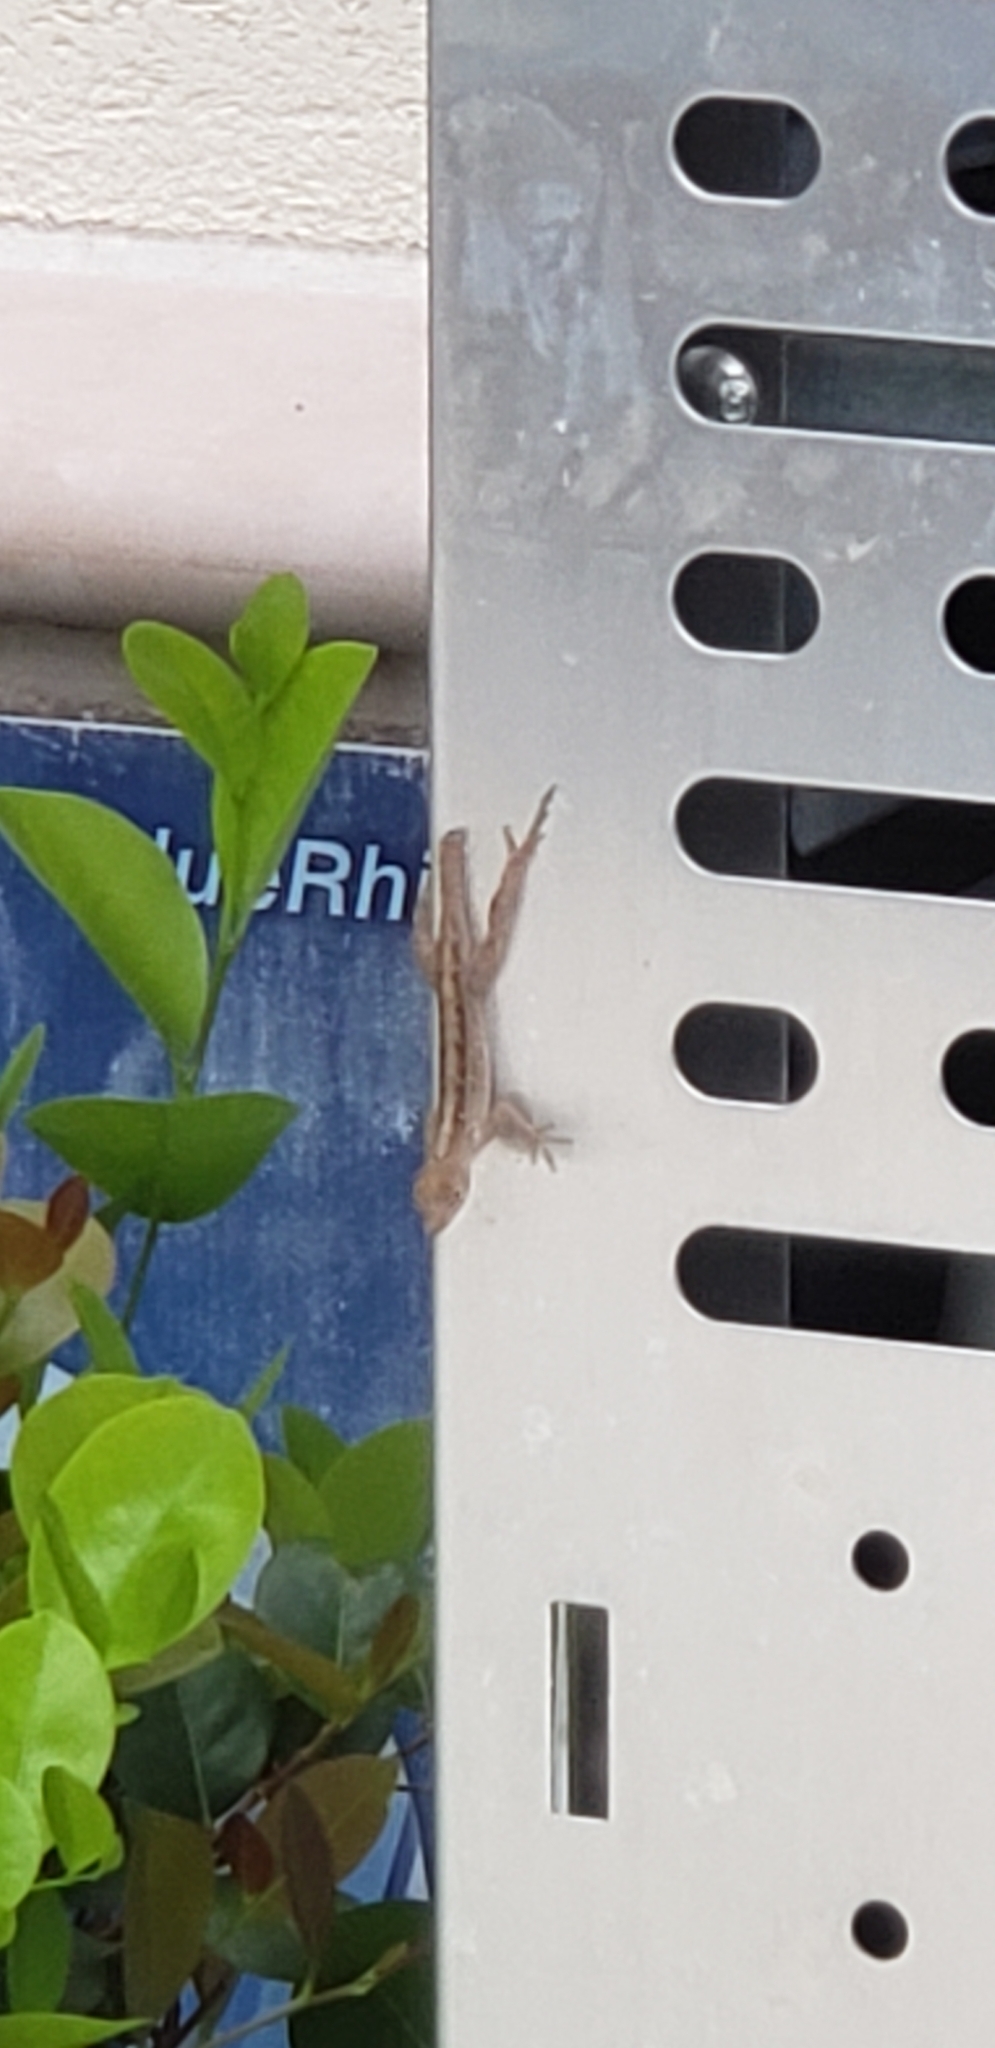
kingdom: Animalia
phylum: Chordata
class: Squamata
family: Dactyloidae
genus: Anolis
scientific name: Anolis sagrei
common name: Brown anole
